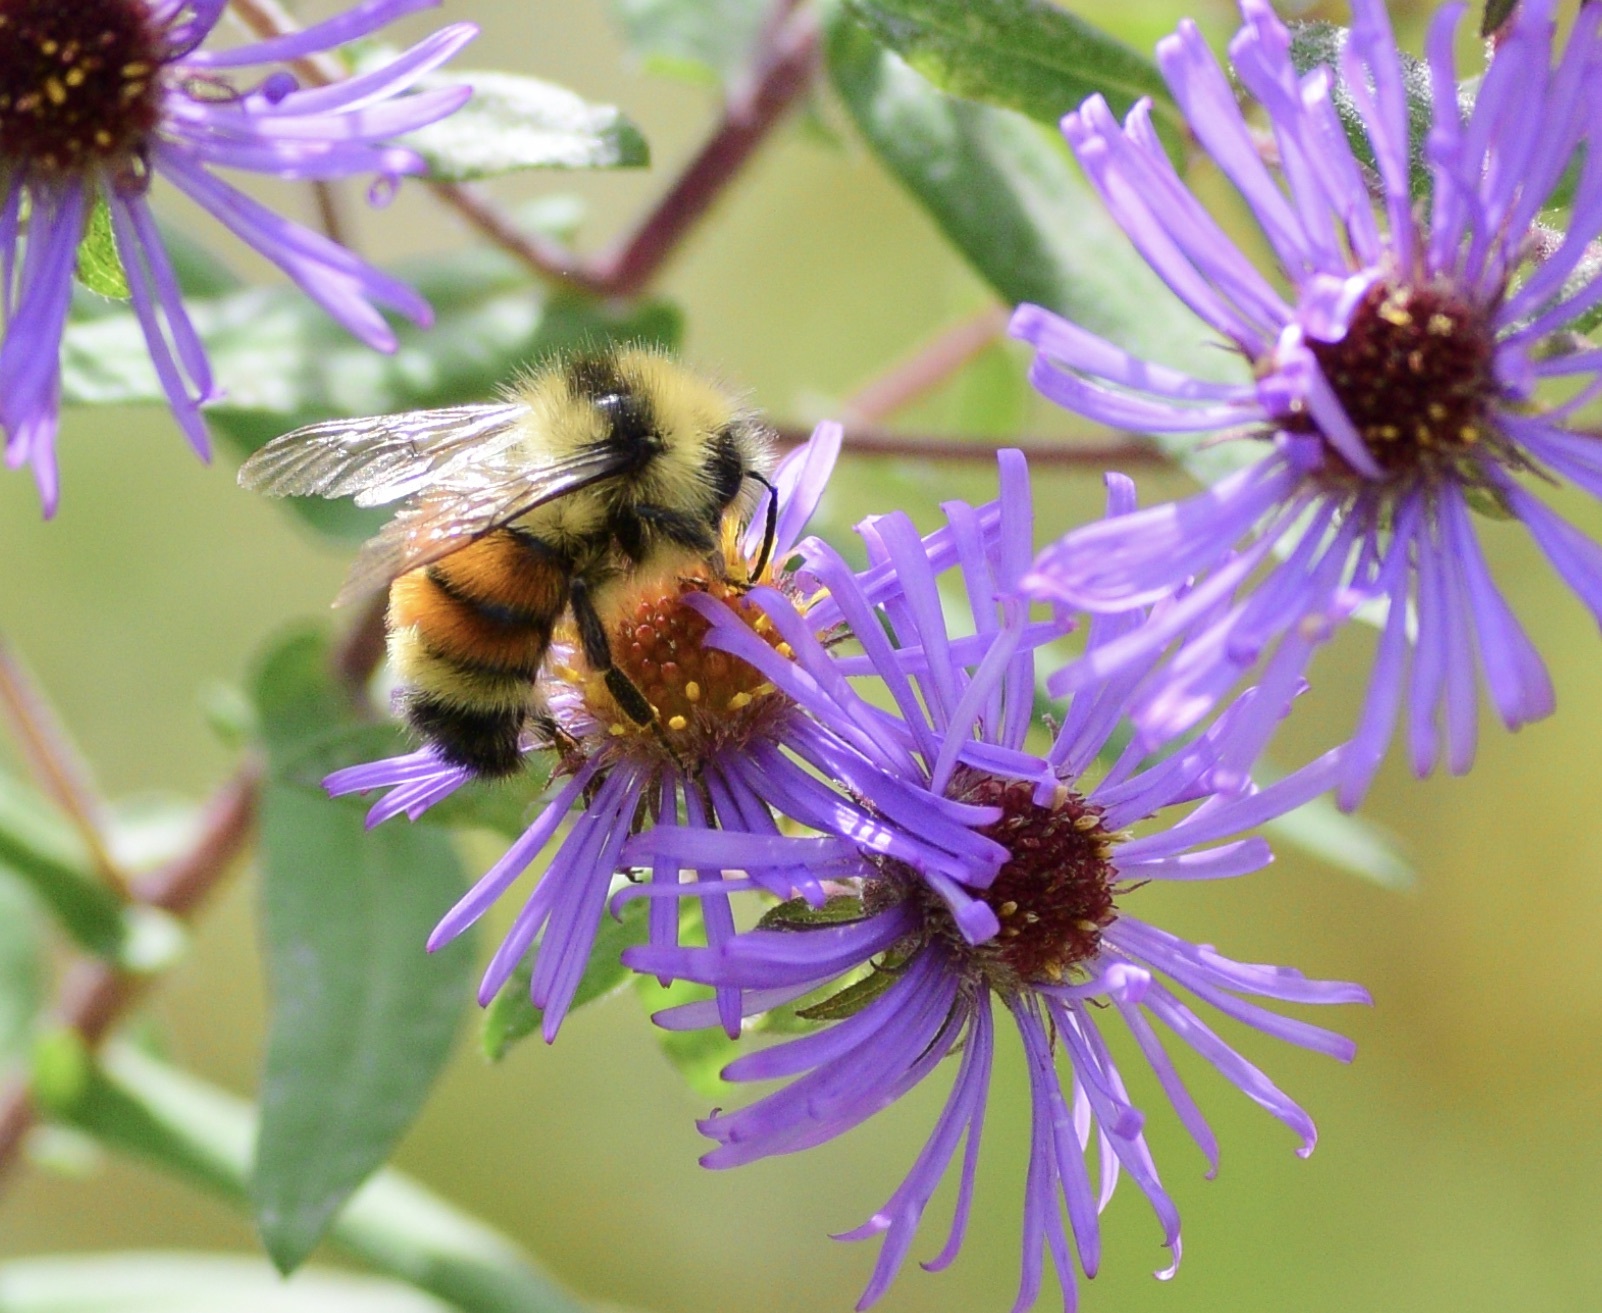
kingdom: Animalia
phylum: Arthropoda
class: Insecta
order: Hymenoptera
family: Apidae
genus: Bombus
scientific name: Bombus ternarius
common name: Tri-colored bumble bee
